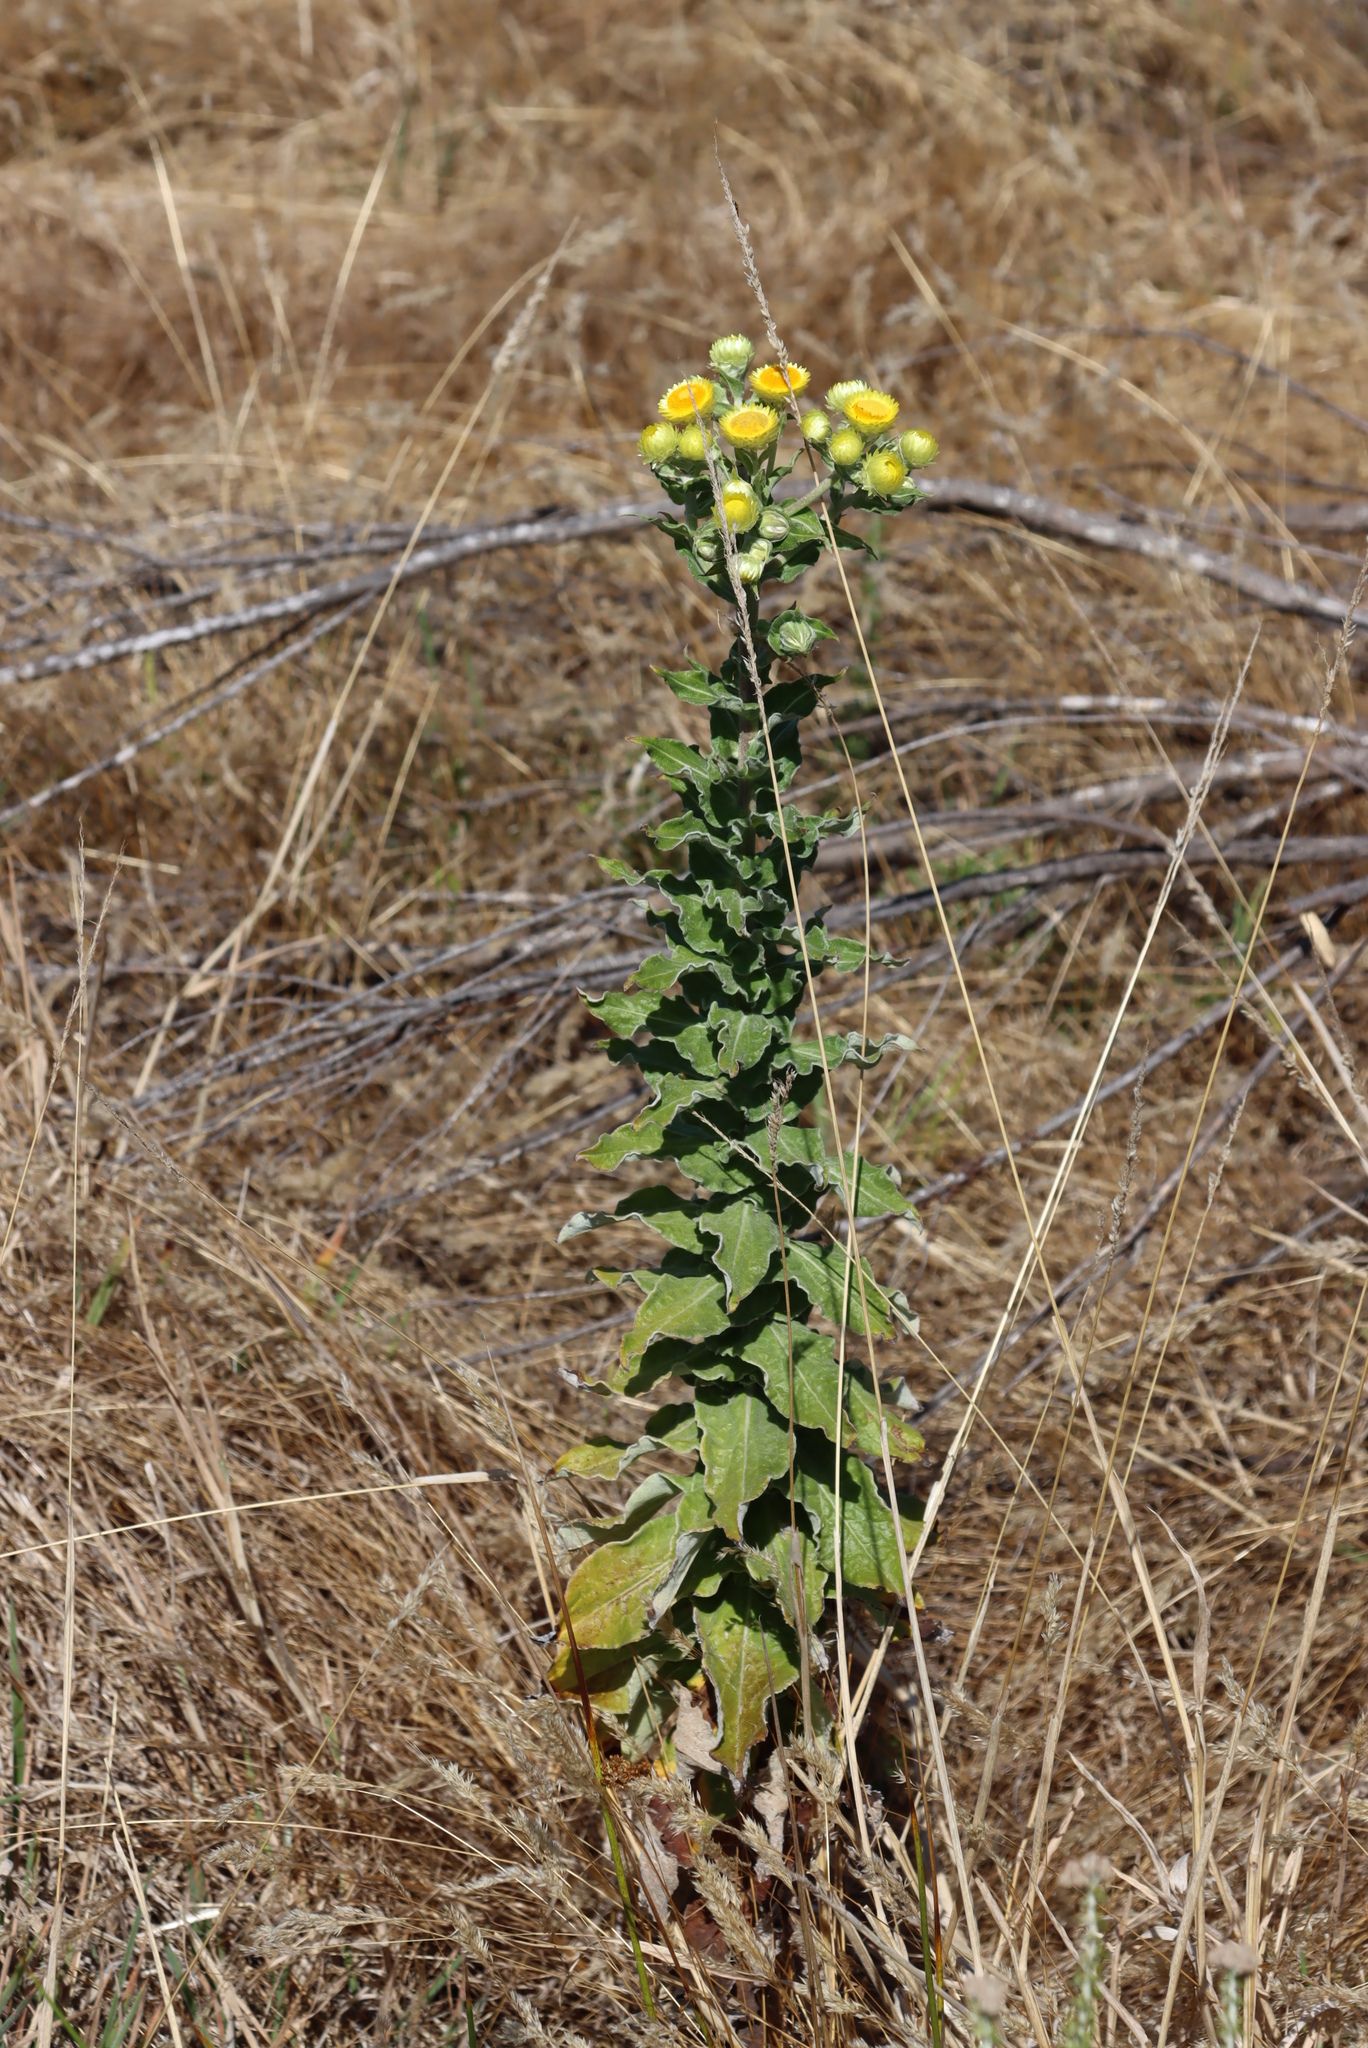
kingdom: Plantae
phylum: Tracheophyta
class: Magnoliopsida
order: Asterales
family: Asteraceae
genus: Helichrysum
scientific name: Helichrysum foetidum
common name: Stinking everlasting
